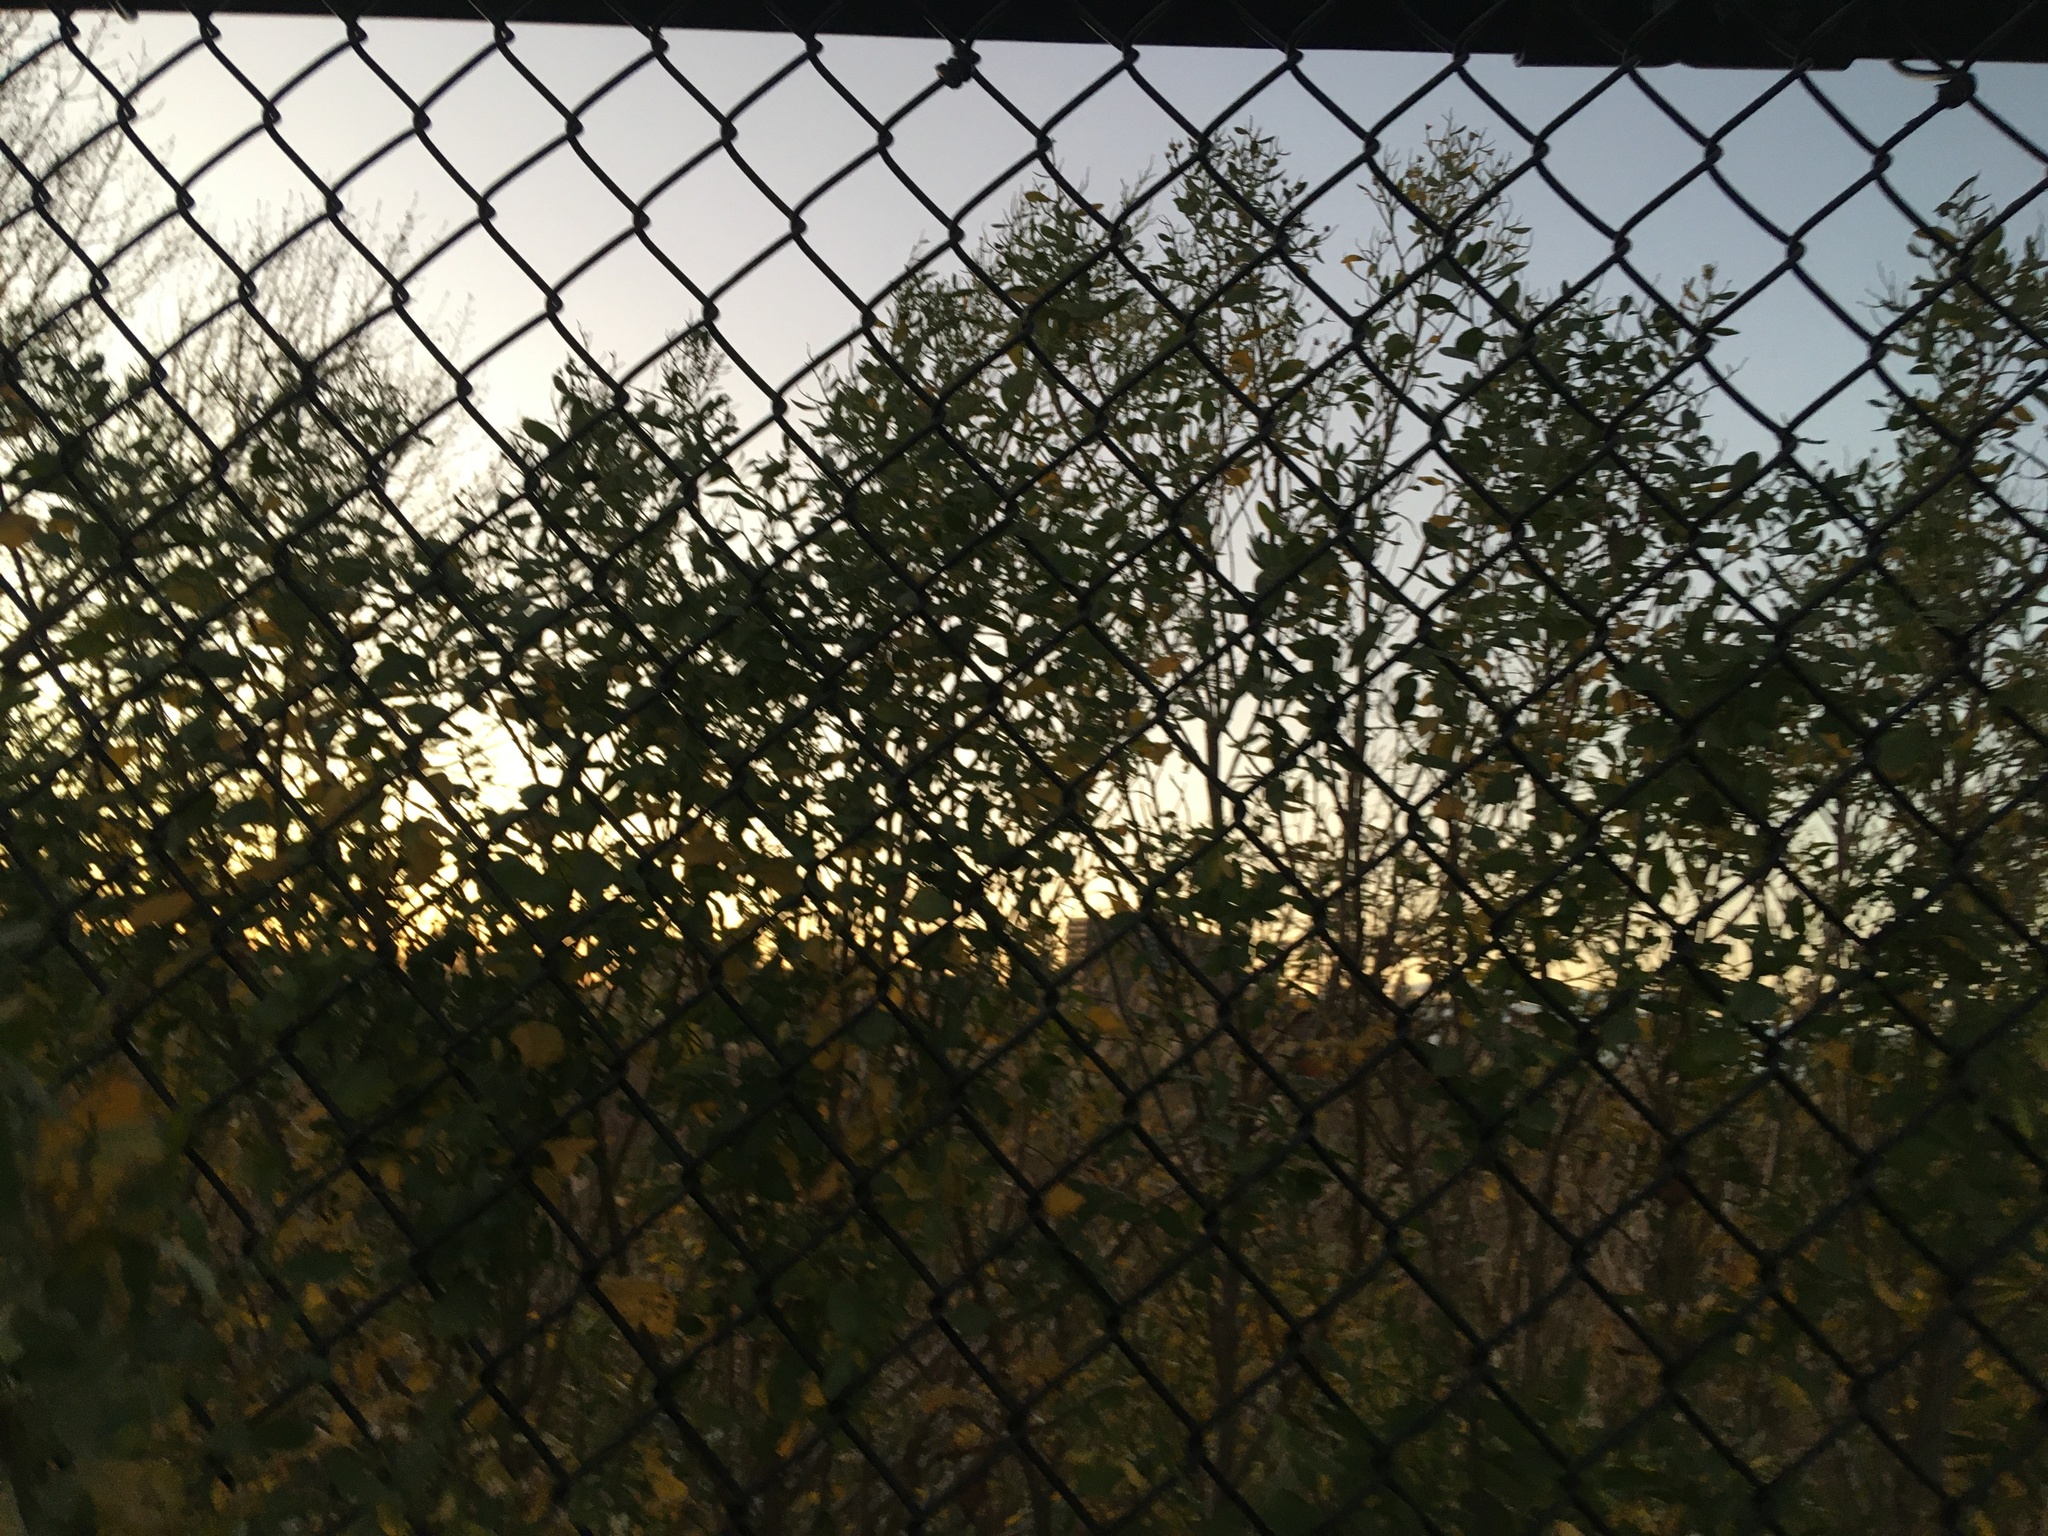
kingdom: Plantae
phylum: Tracheophyta
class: Magnoliopsida
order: Asterales
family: Asteraceae
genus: Baccharis
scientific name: Baccharis halimifolia
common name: Eastern baccharis
